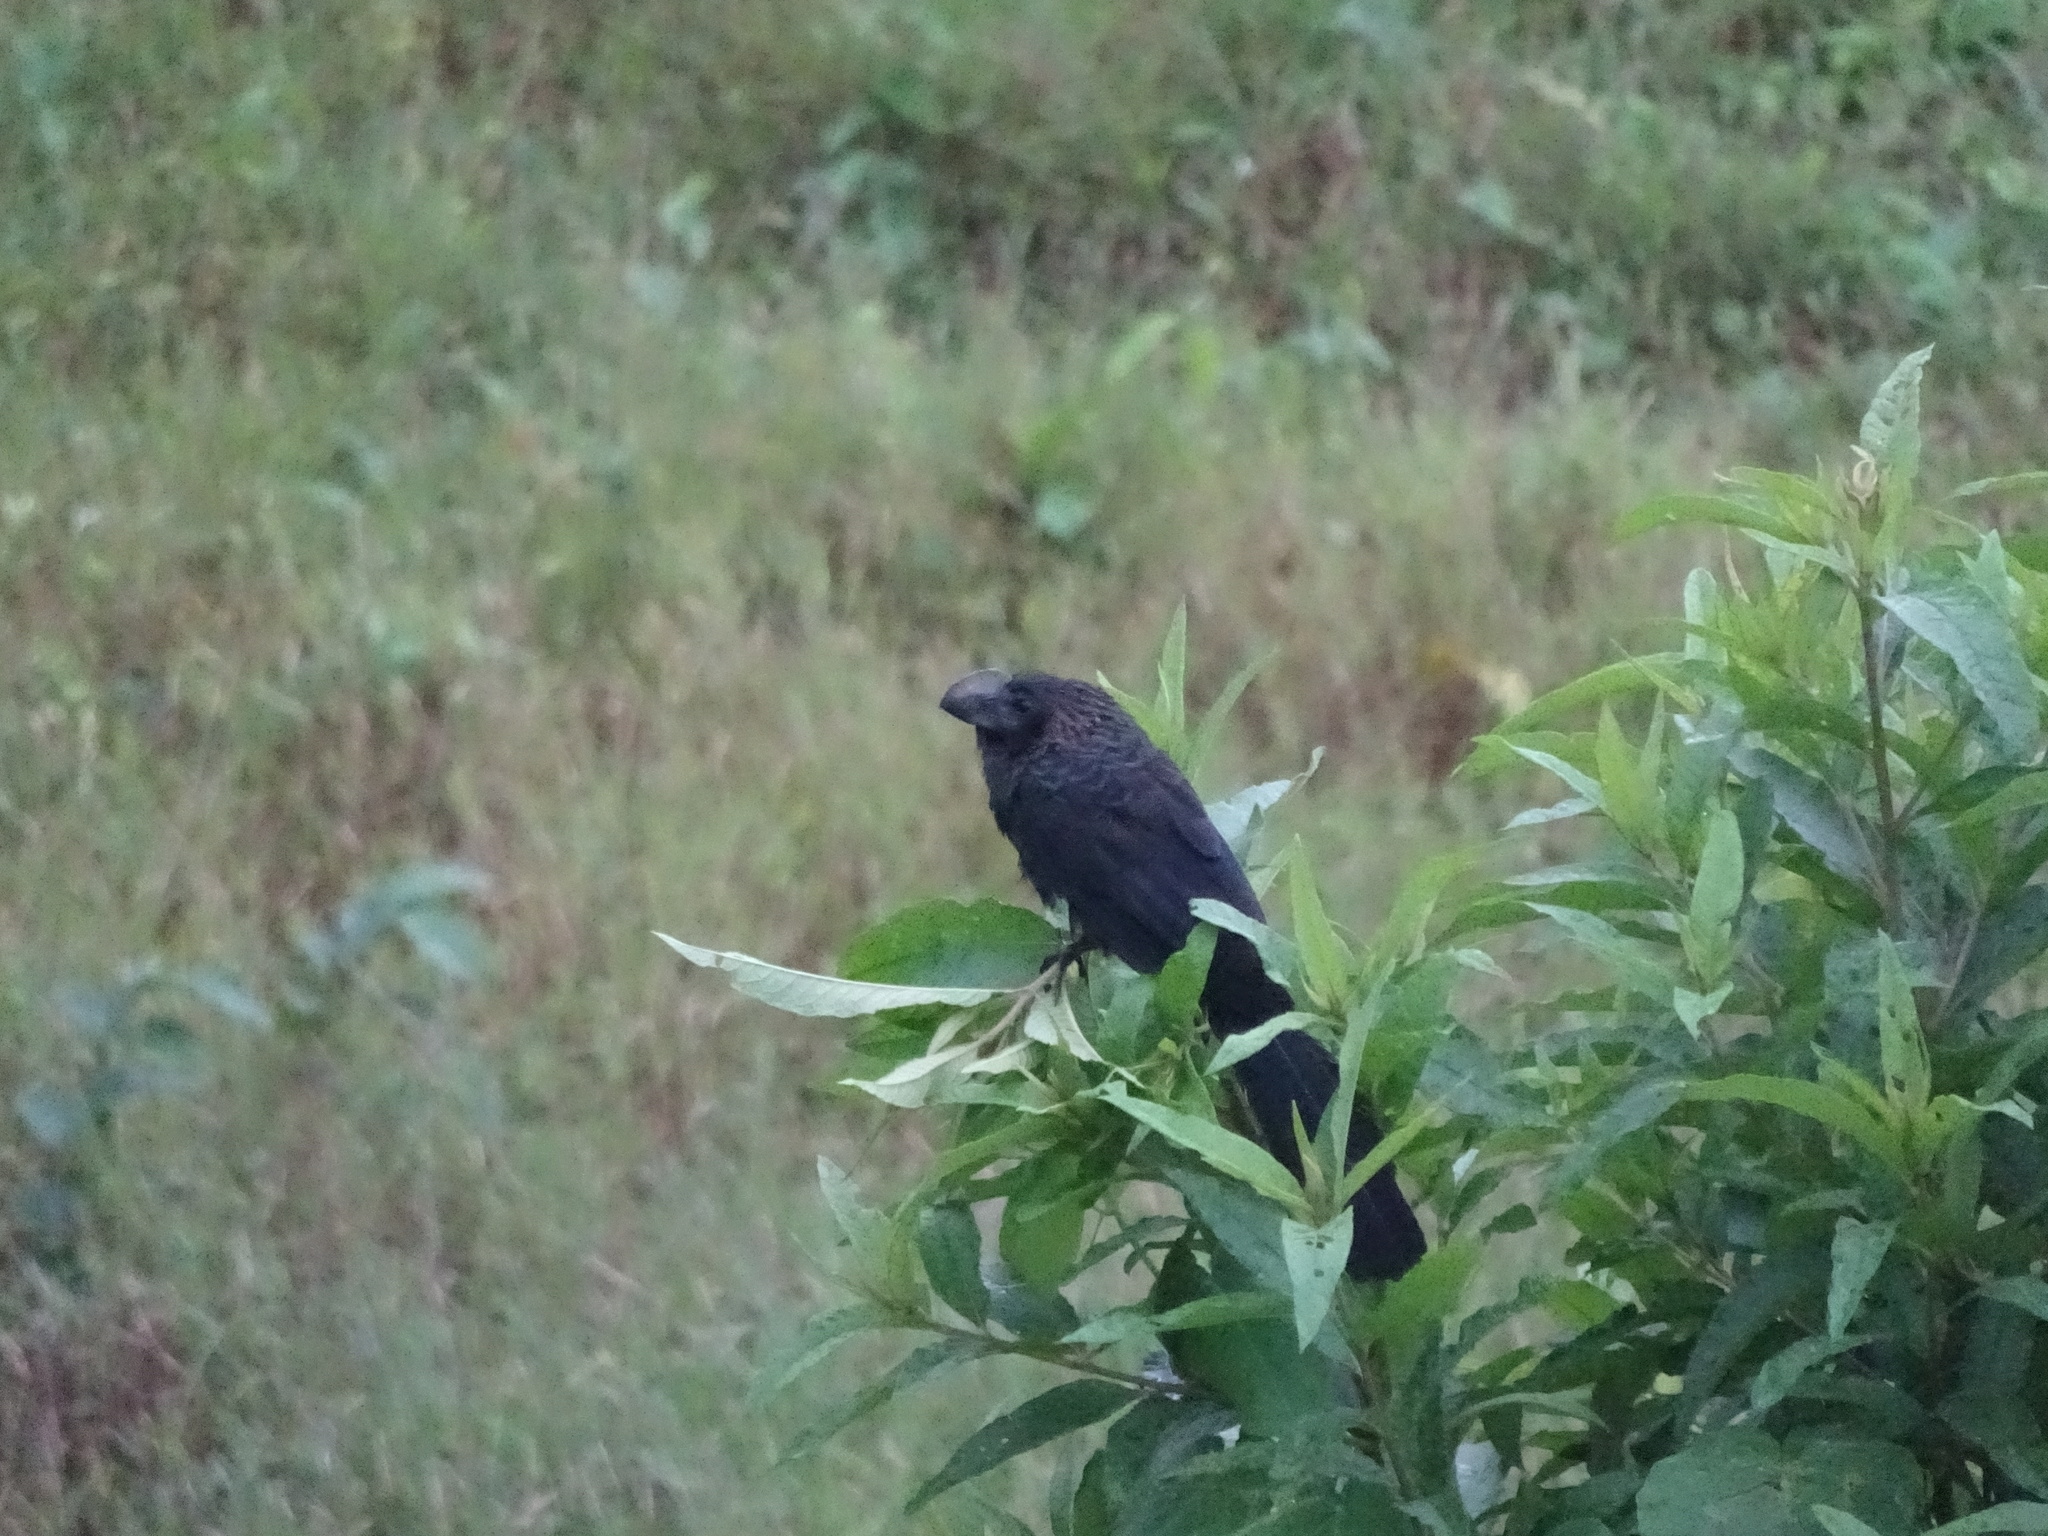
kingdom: Animalia
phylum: Chordata
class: Aves
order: Cuculiformes
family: Cuculidae
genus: Crotophaga
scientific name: Crotophaga ani
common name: Smooth-billed ani
